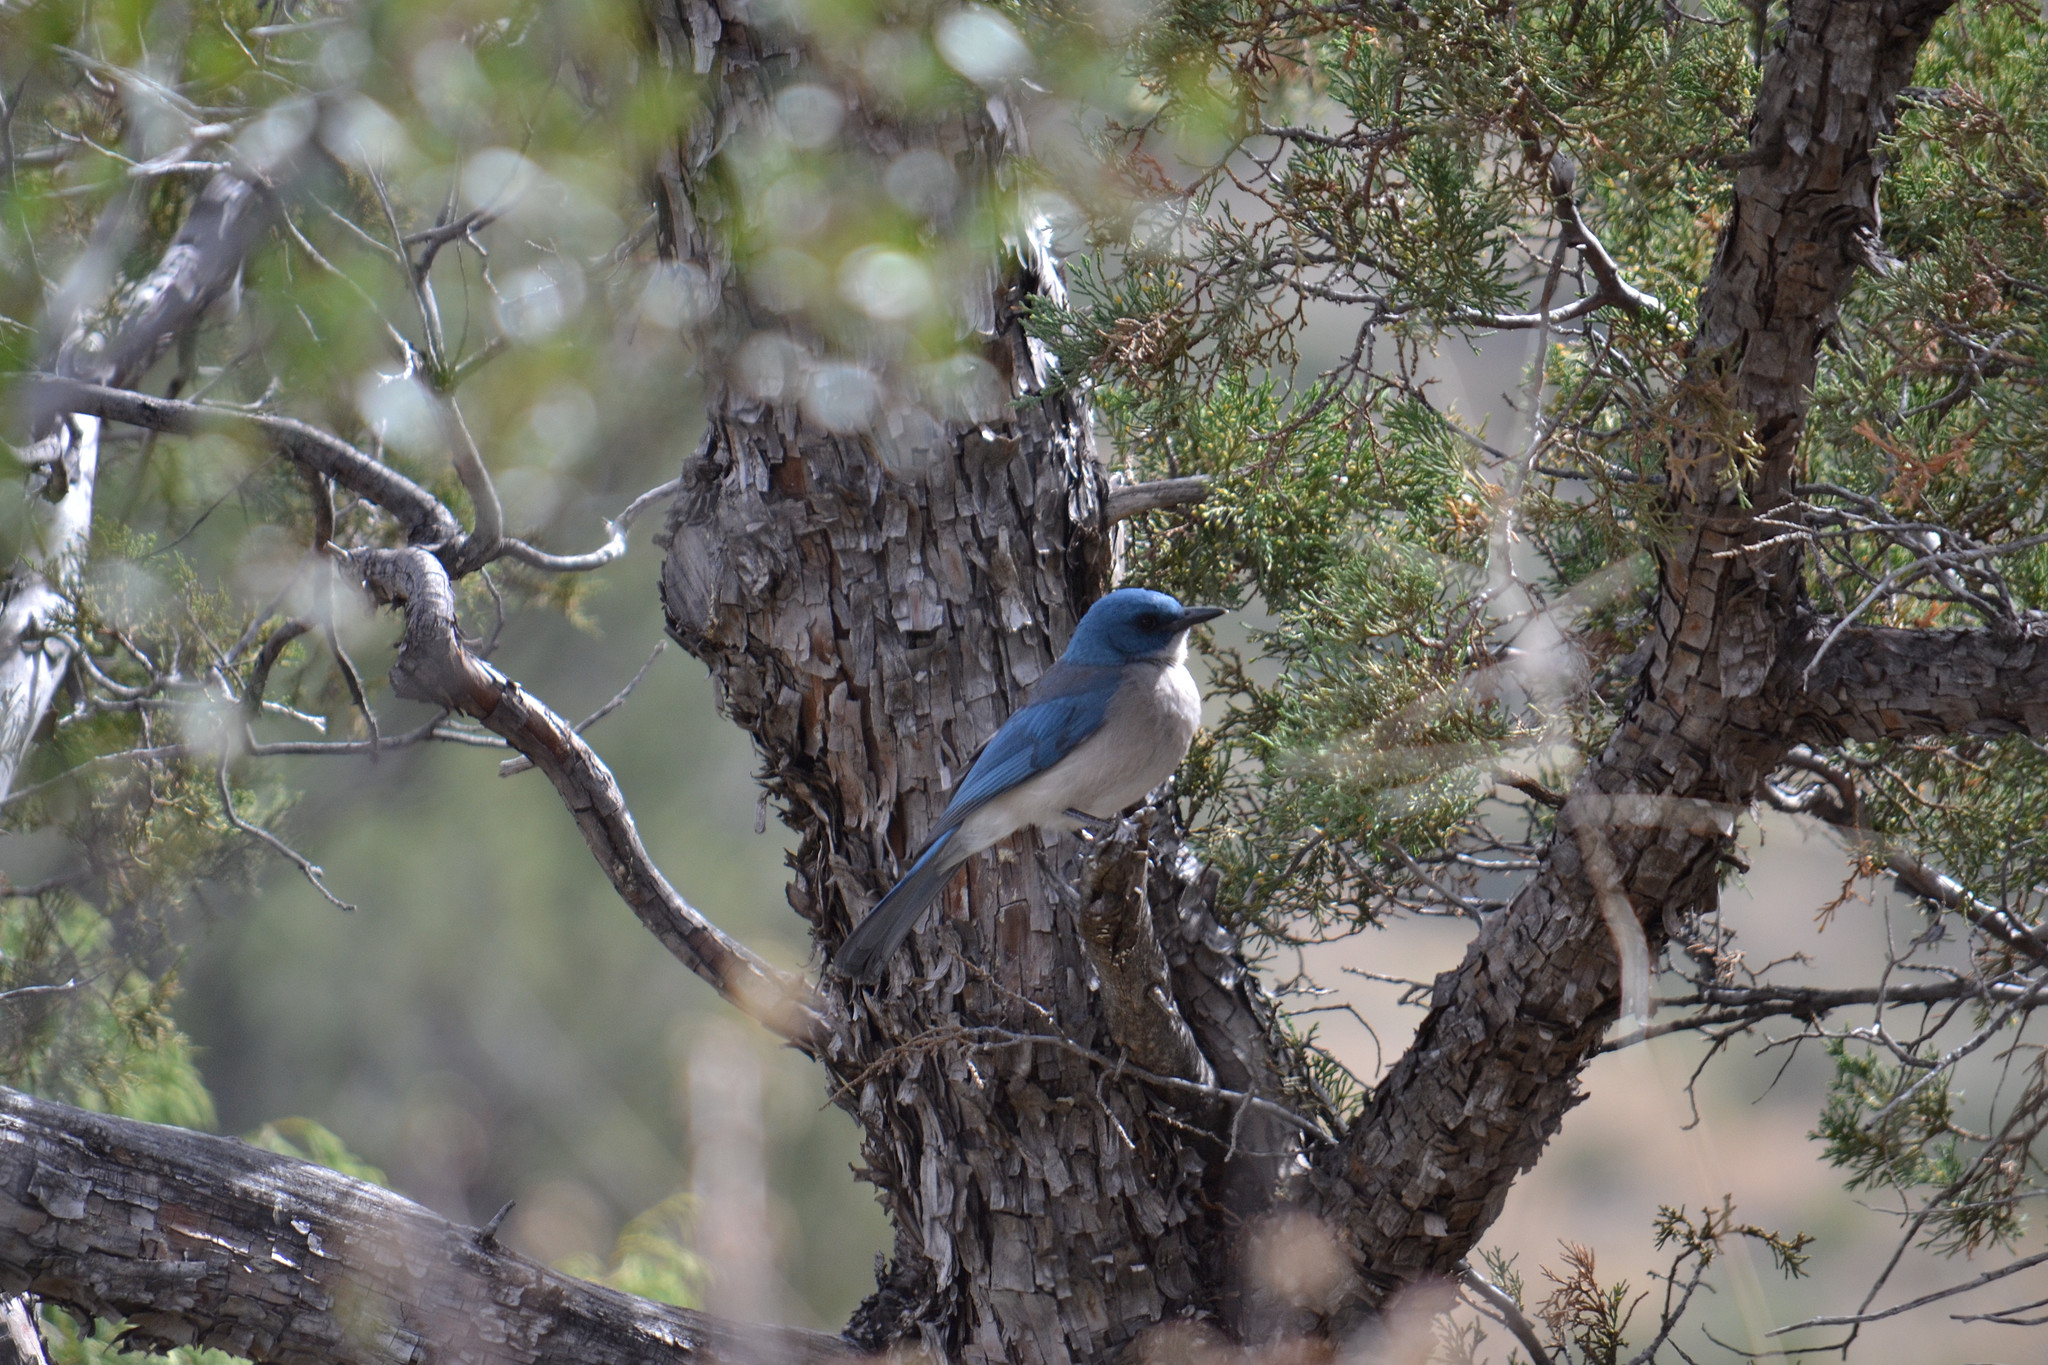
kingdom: Animalia
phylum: Chordata
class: Aves
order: Passeriformes
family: Corvidae
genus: Aphelocoma
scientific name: Aphelocoma wollweberi
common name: Mexican jay
